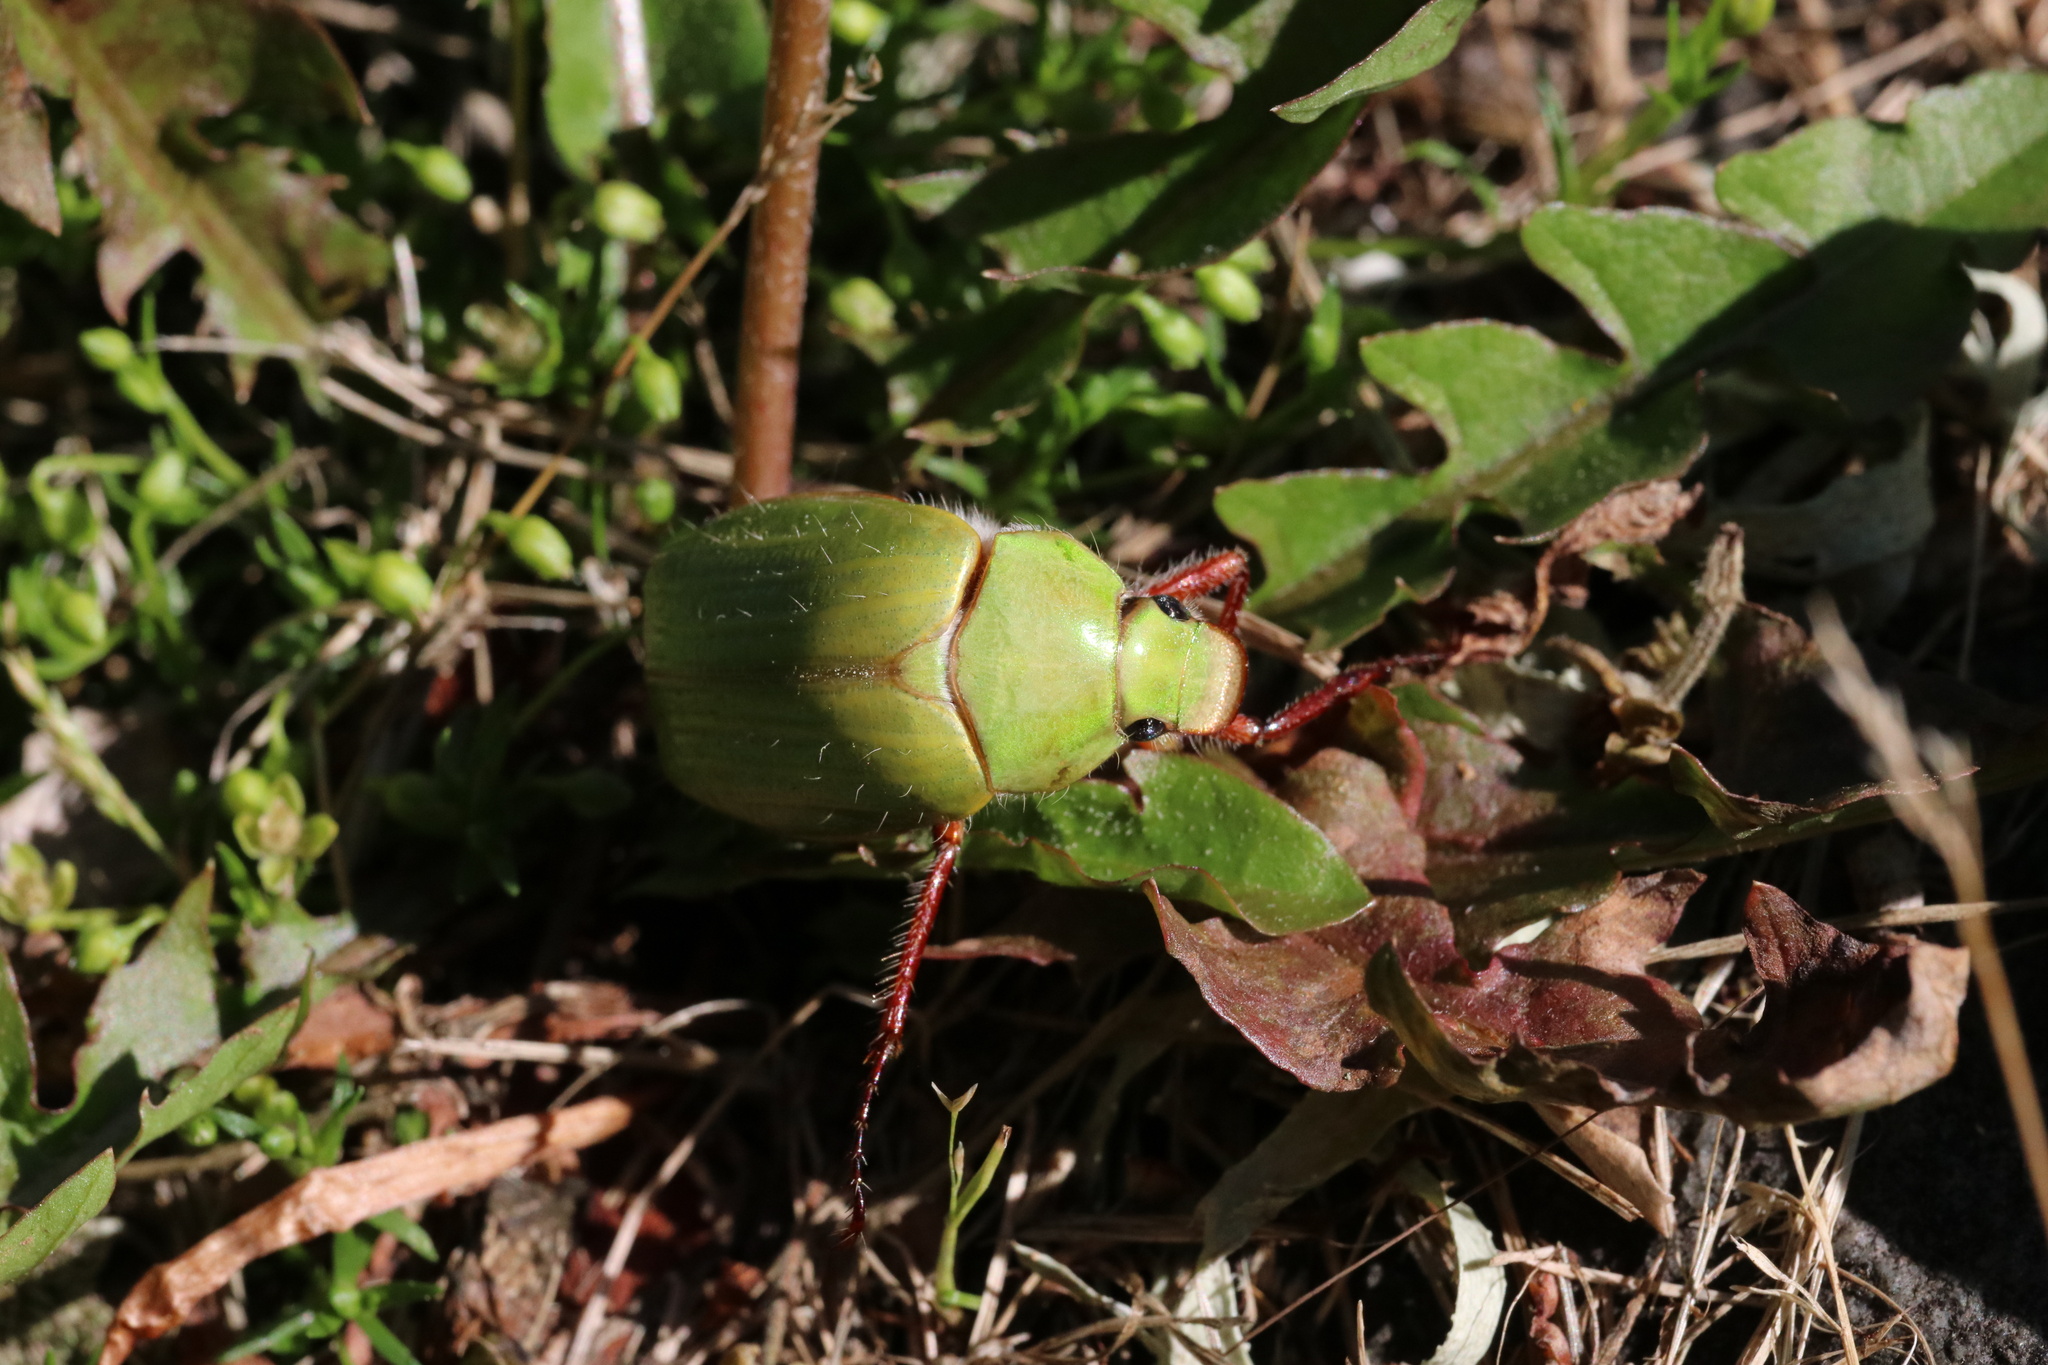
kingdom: Animalia
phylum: Arthropoda
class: Insecta
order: Coleoptera
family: Scarabaeidae
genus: Modialis
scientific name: Modialis prasinella
